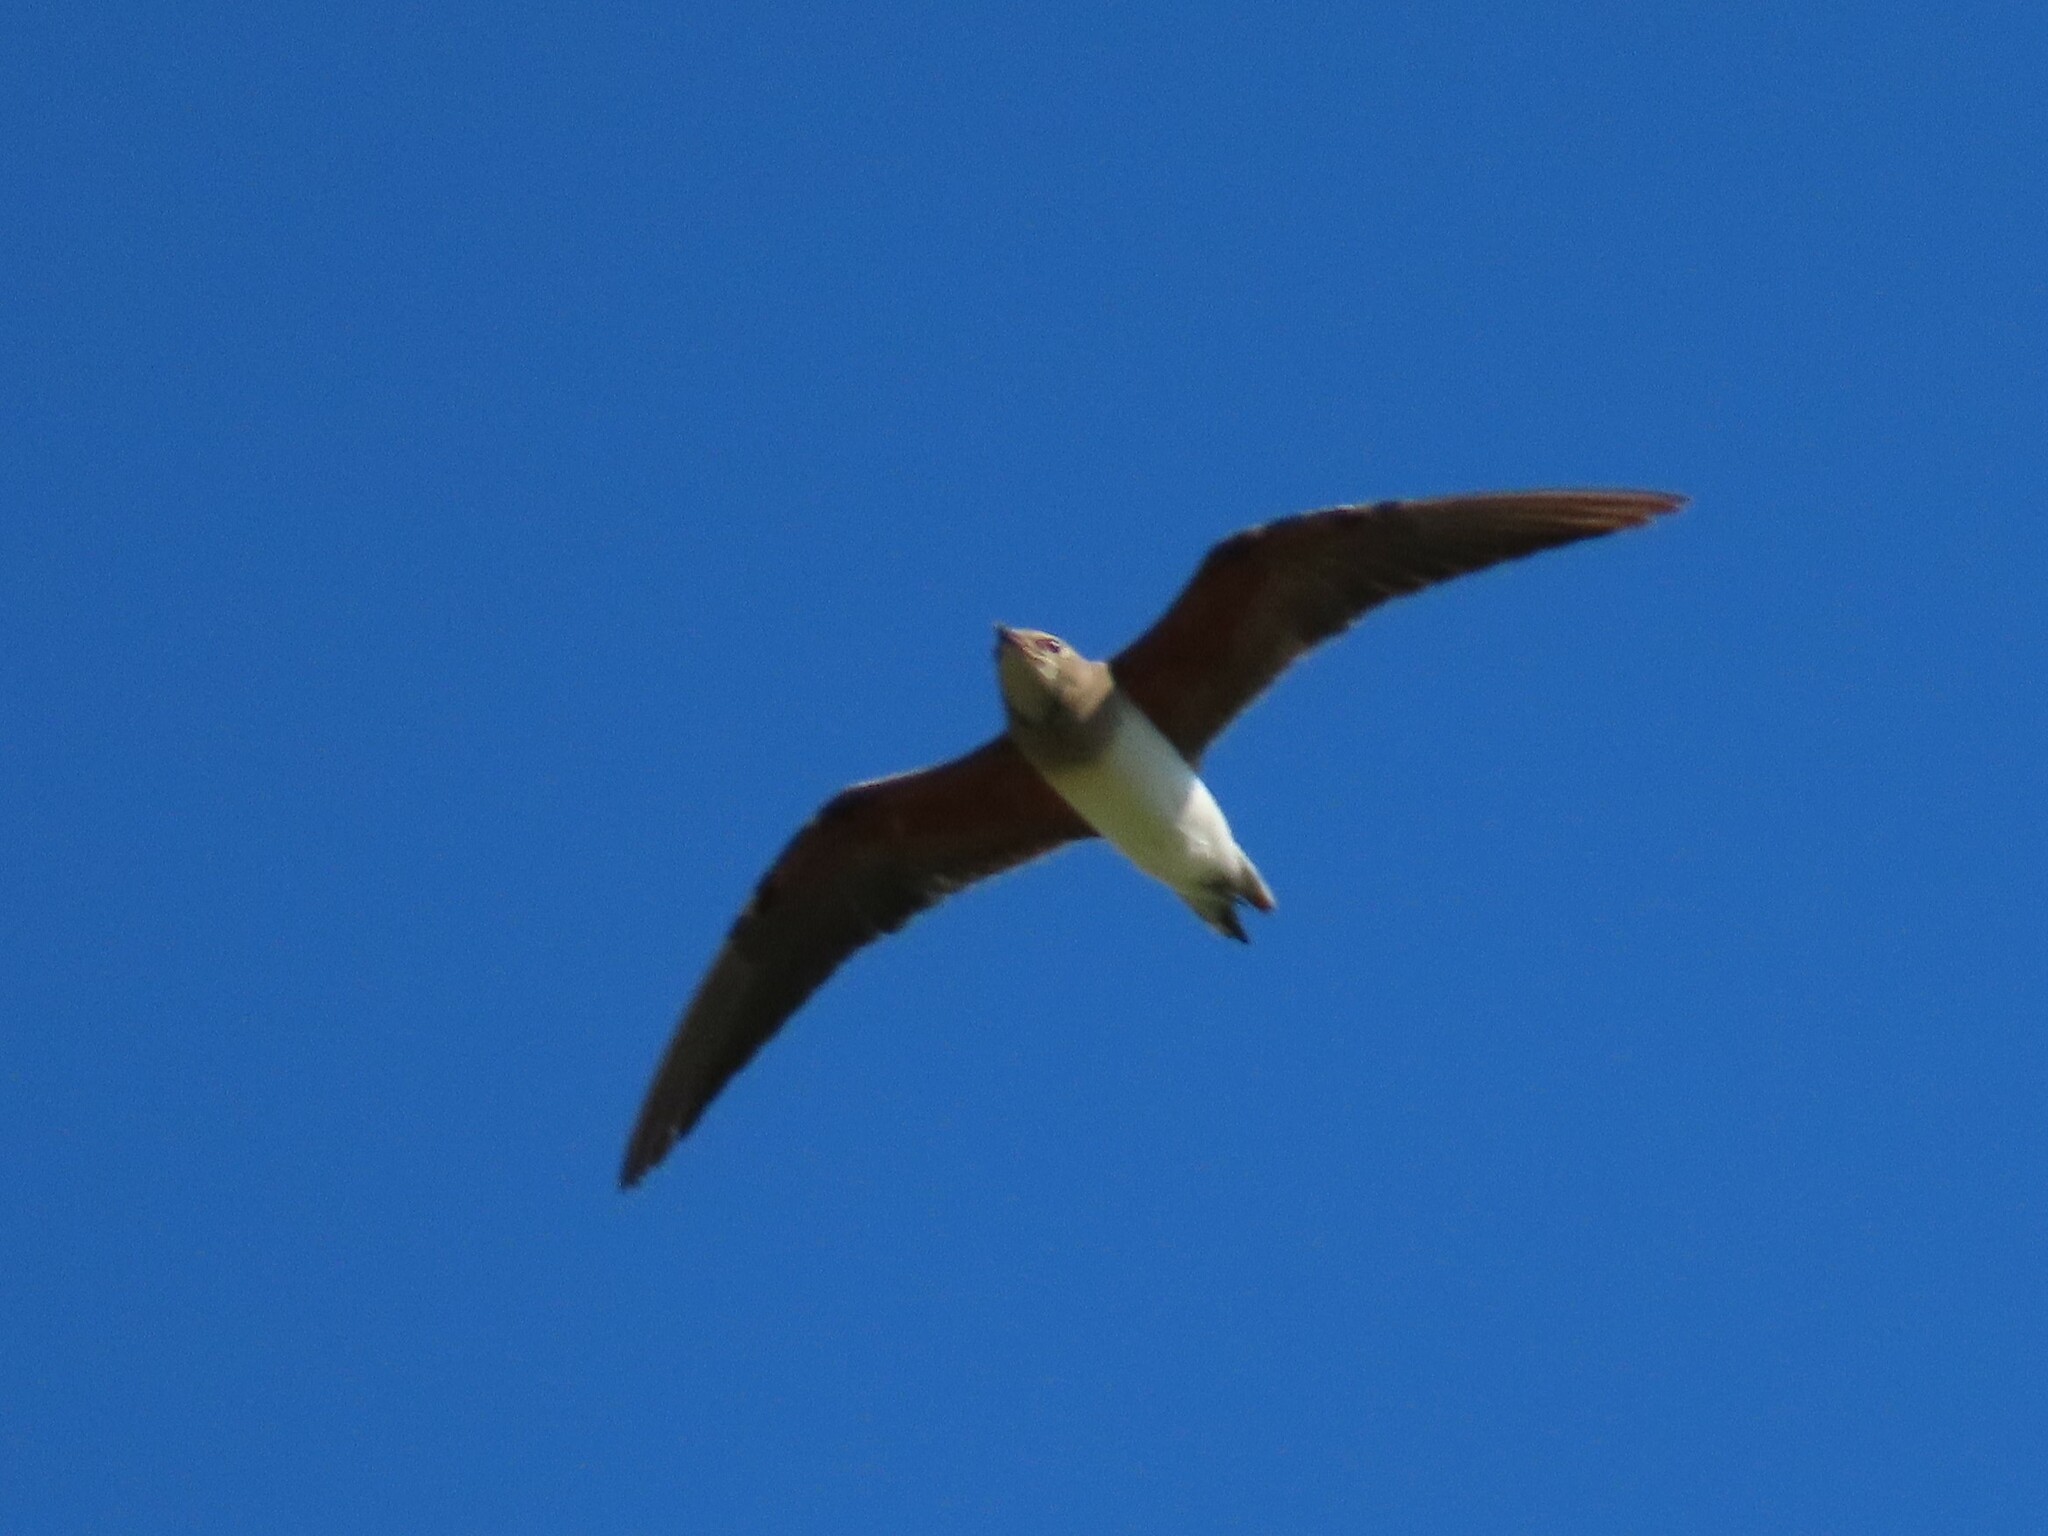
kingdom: Animalia
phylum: Chordata
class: Aves
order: Charadriiformes
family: Glareolidae
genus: Glareola
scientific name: Glareola maldivarum
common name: Oriental pratincole
